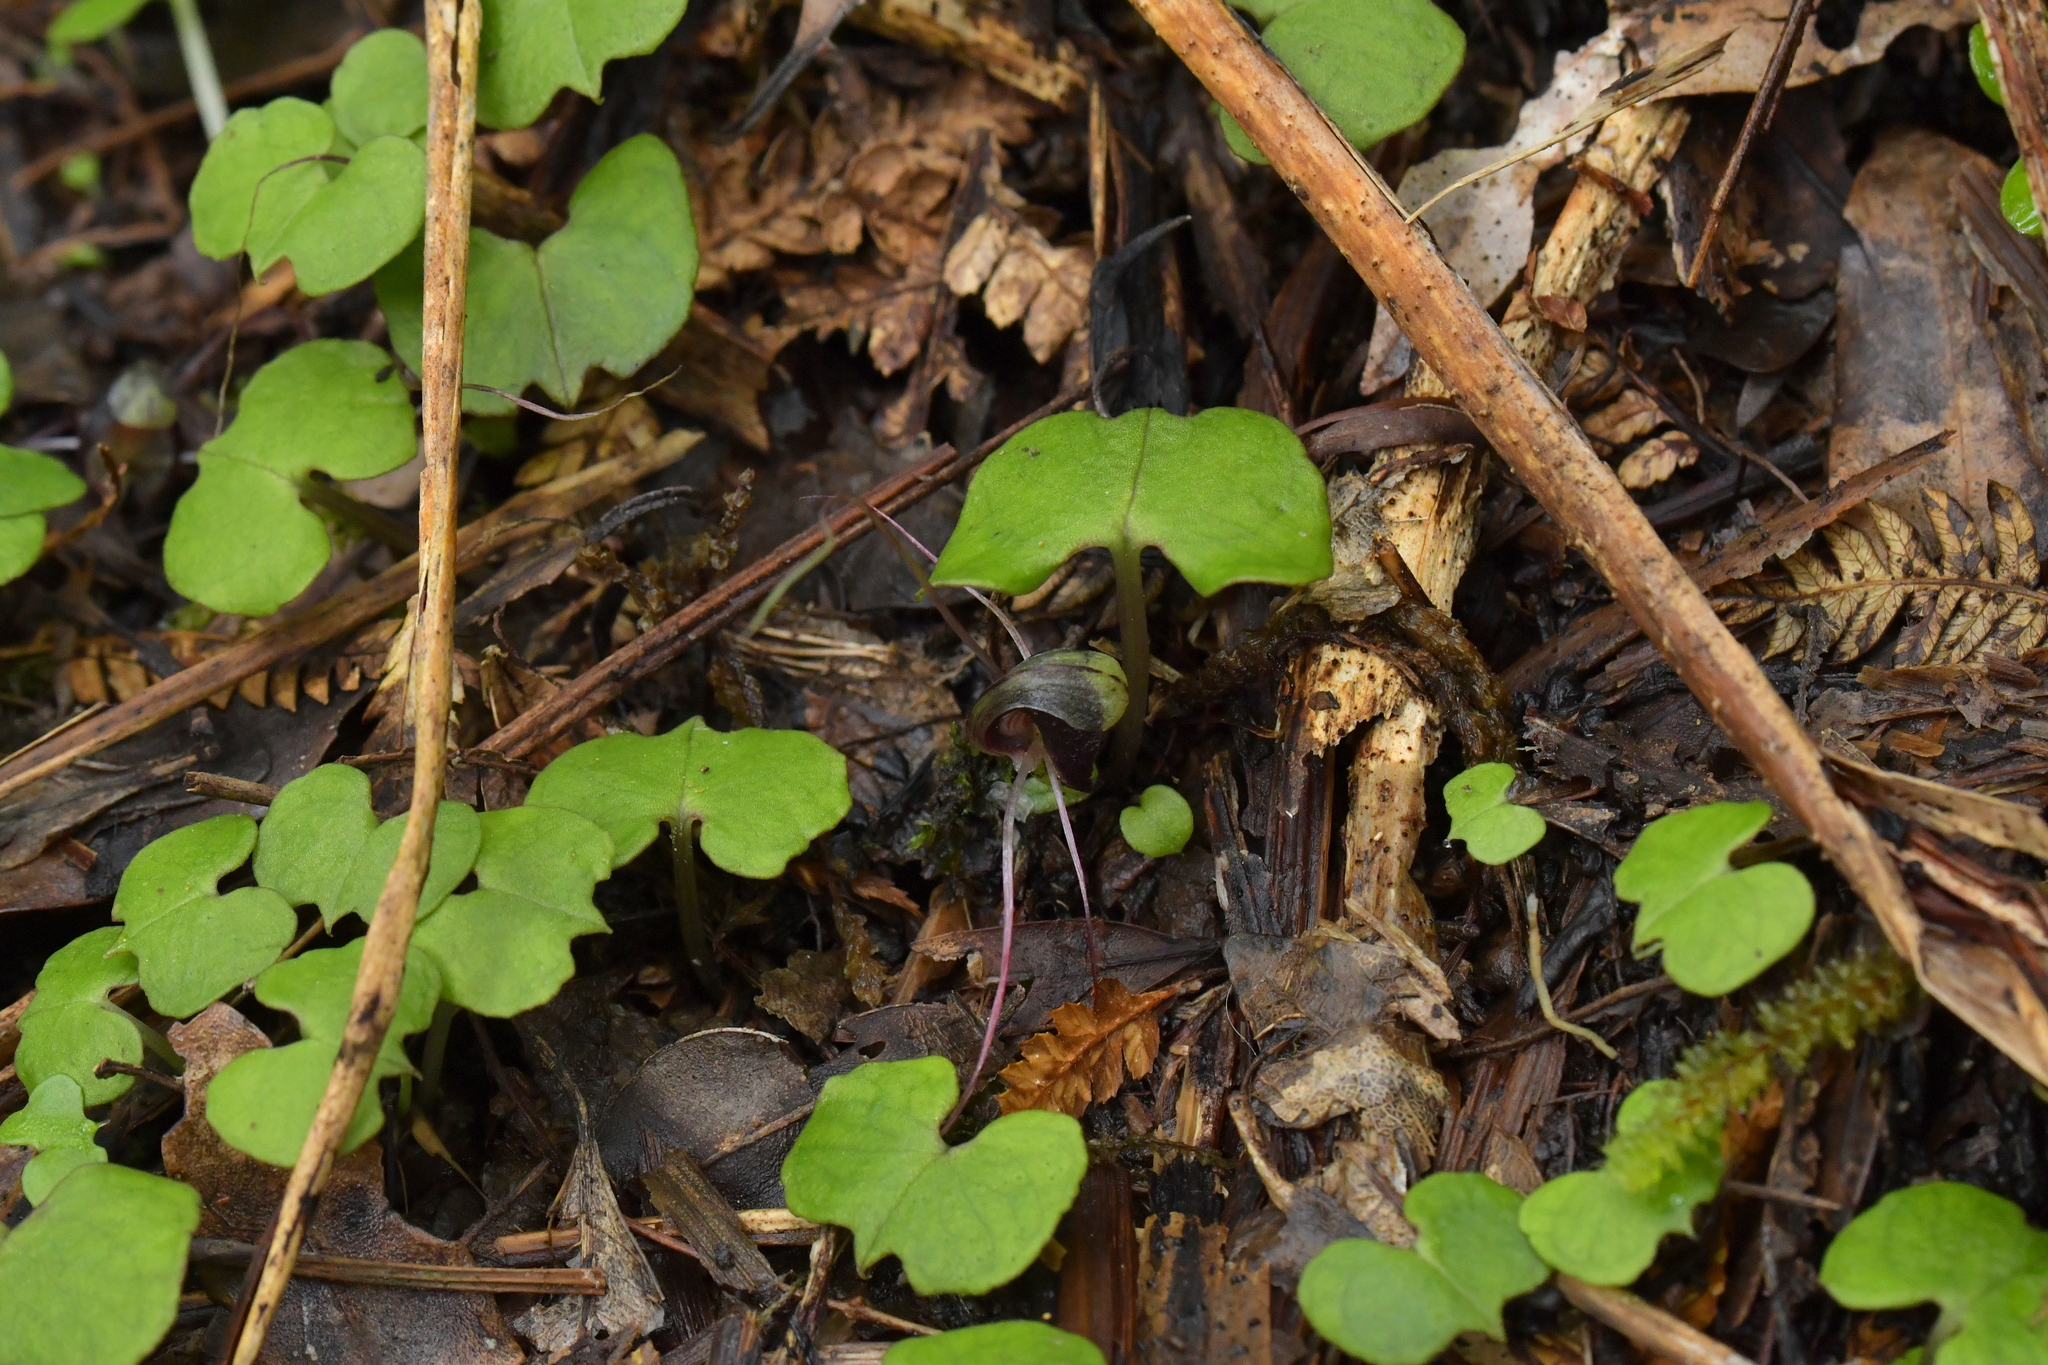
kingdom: Plantae
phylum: Tracheophyta
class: Liliopsida
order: Asparagales
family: Orchidaceae
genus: Corybas
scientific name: Corybas trilobus
